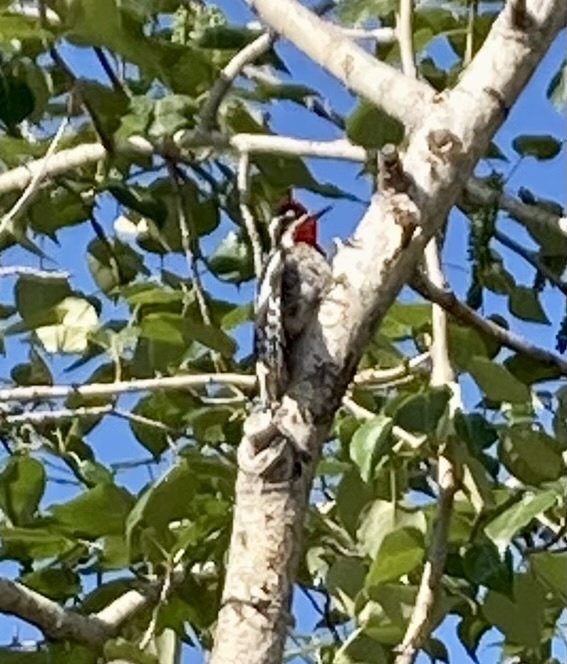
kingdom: Animalia
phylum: Chordata
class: Aves
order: Piciformes
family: Picidae
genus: Sphyrapicus
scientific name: Sphyrapicus nuchalis
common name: Red-naped sapsucker
